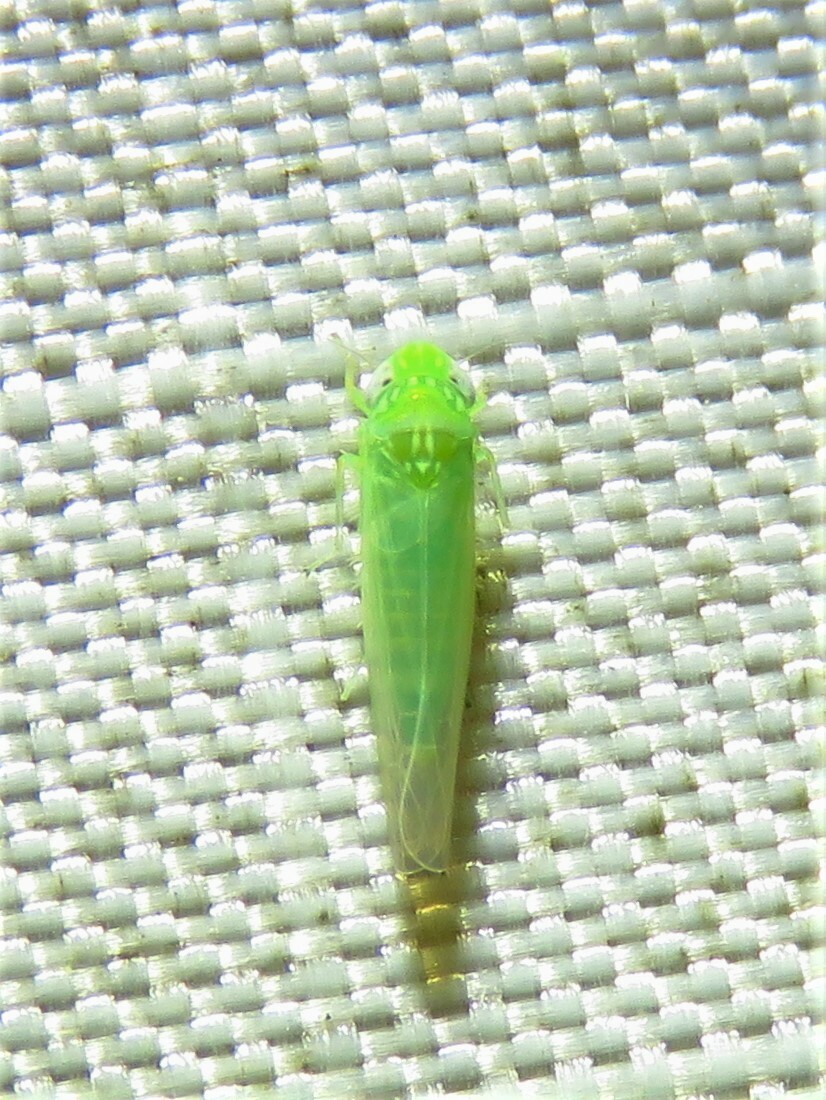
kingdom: Animalia
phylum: Arthropoda
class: Insecta
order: Hemiptera
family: Cicadellidae
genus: Empoasca
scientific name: Empoasca fabae
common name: Potato leafhopper
